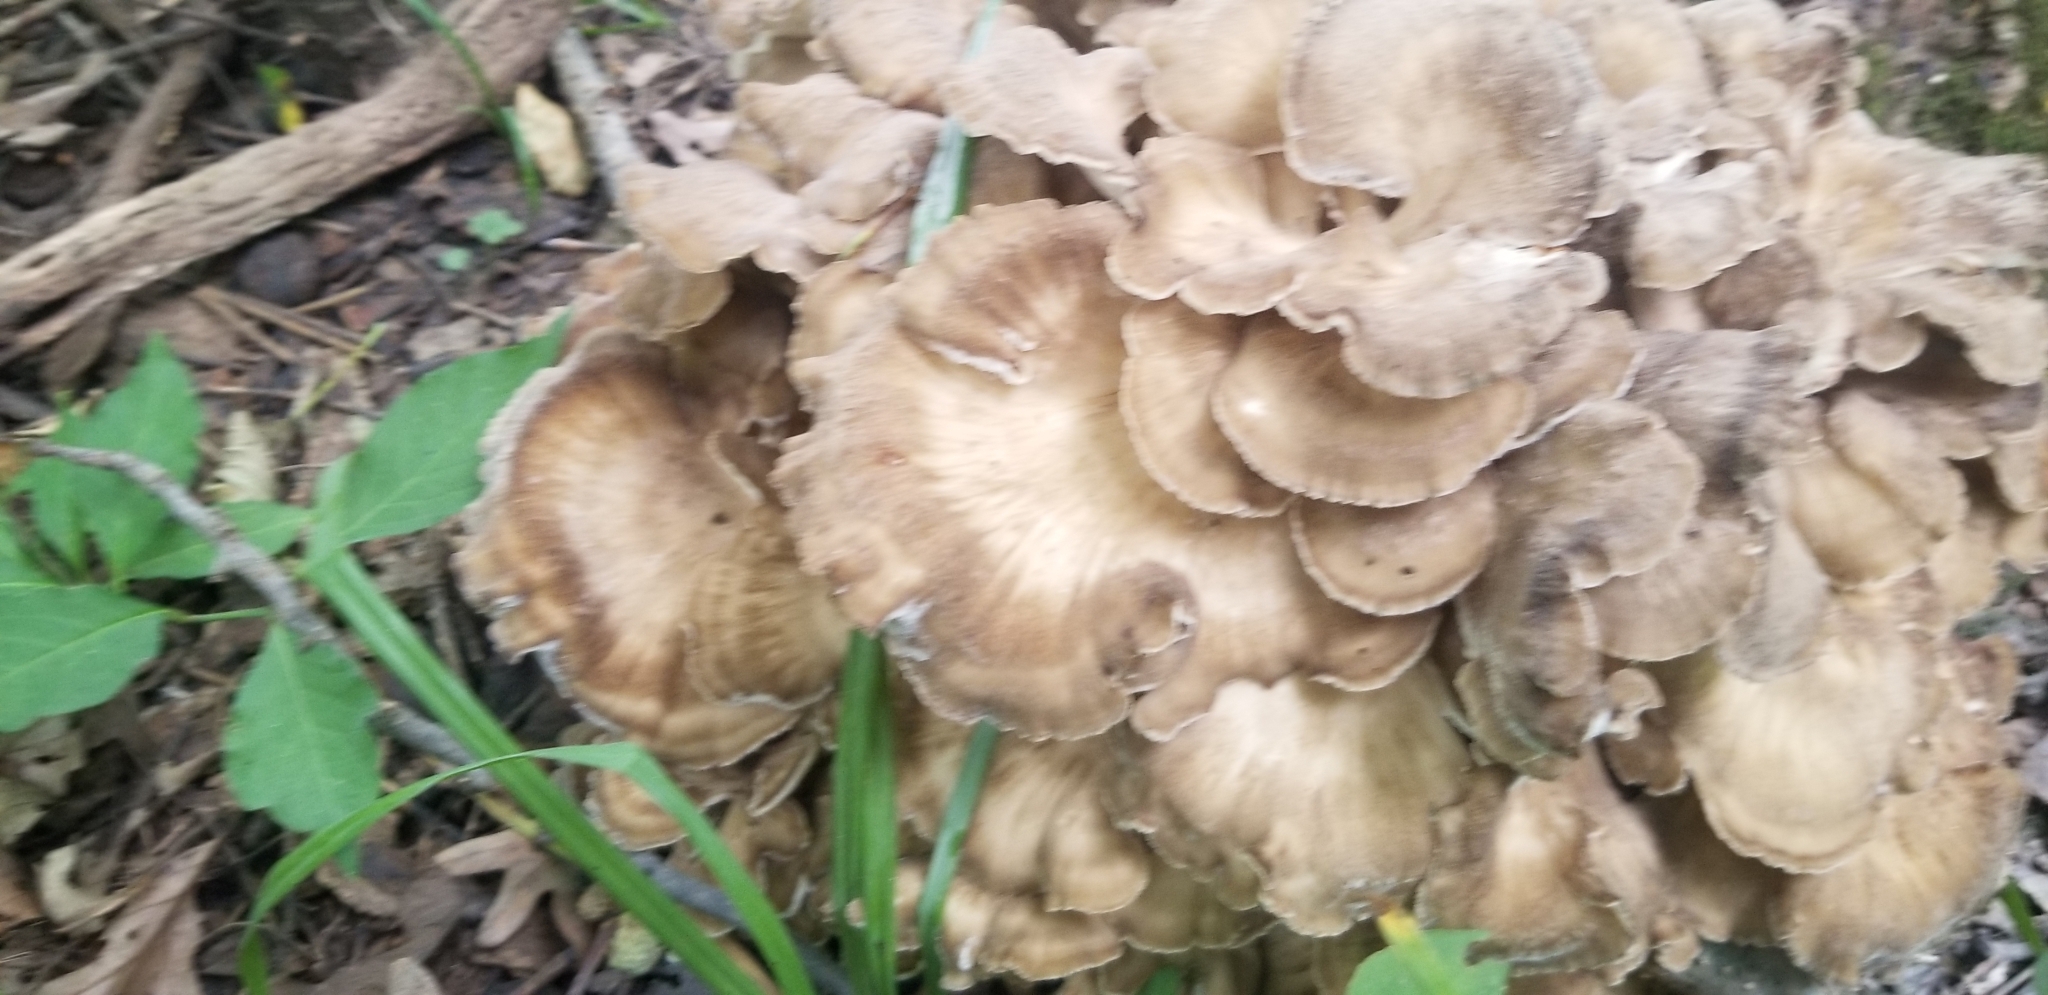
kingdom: Fungi
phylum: Basidiomycota
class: Agaricomycetes
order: Polyporales
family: Grifolaceae
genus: Grifola
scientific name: Grifola frondosa
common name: Hen of the woods
